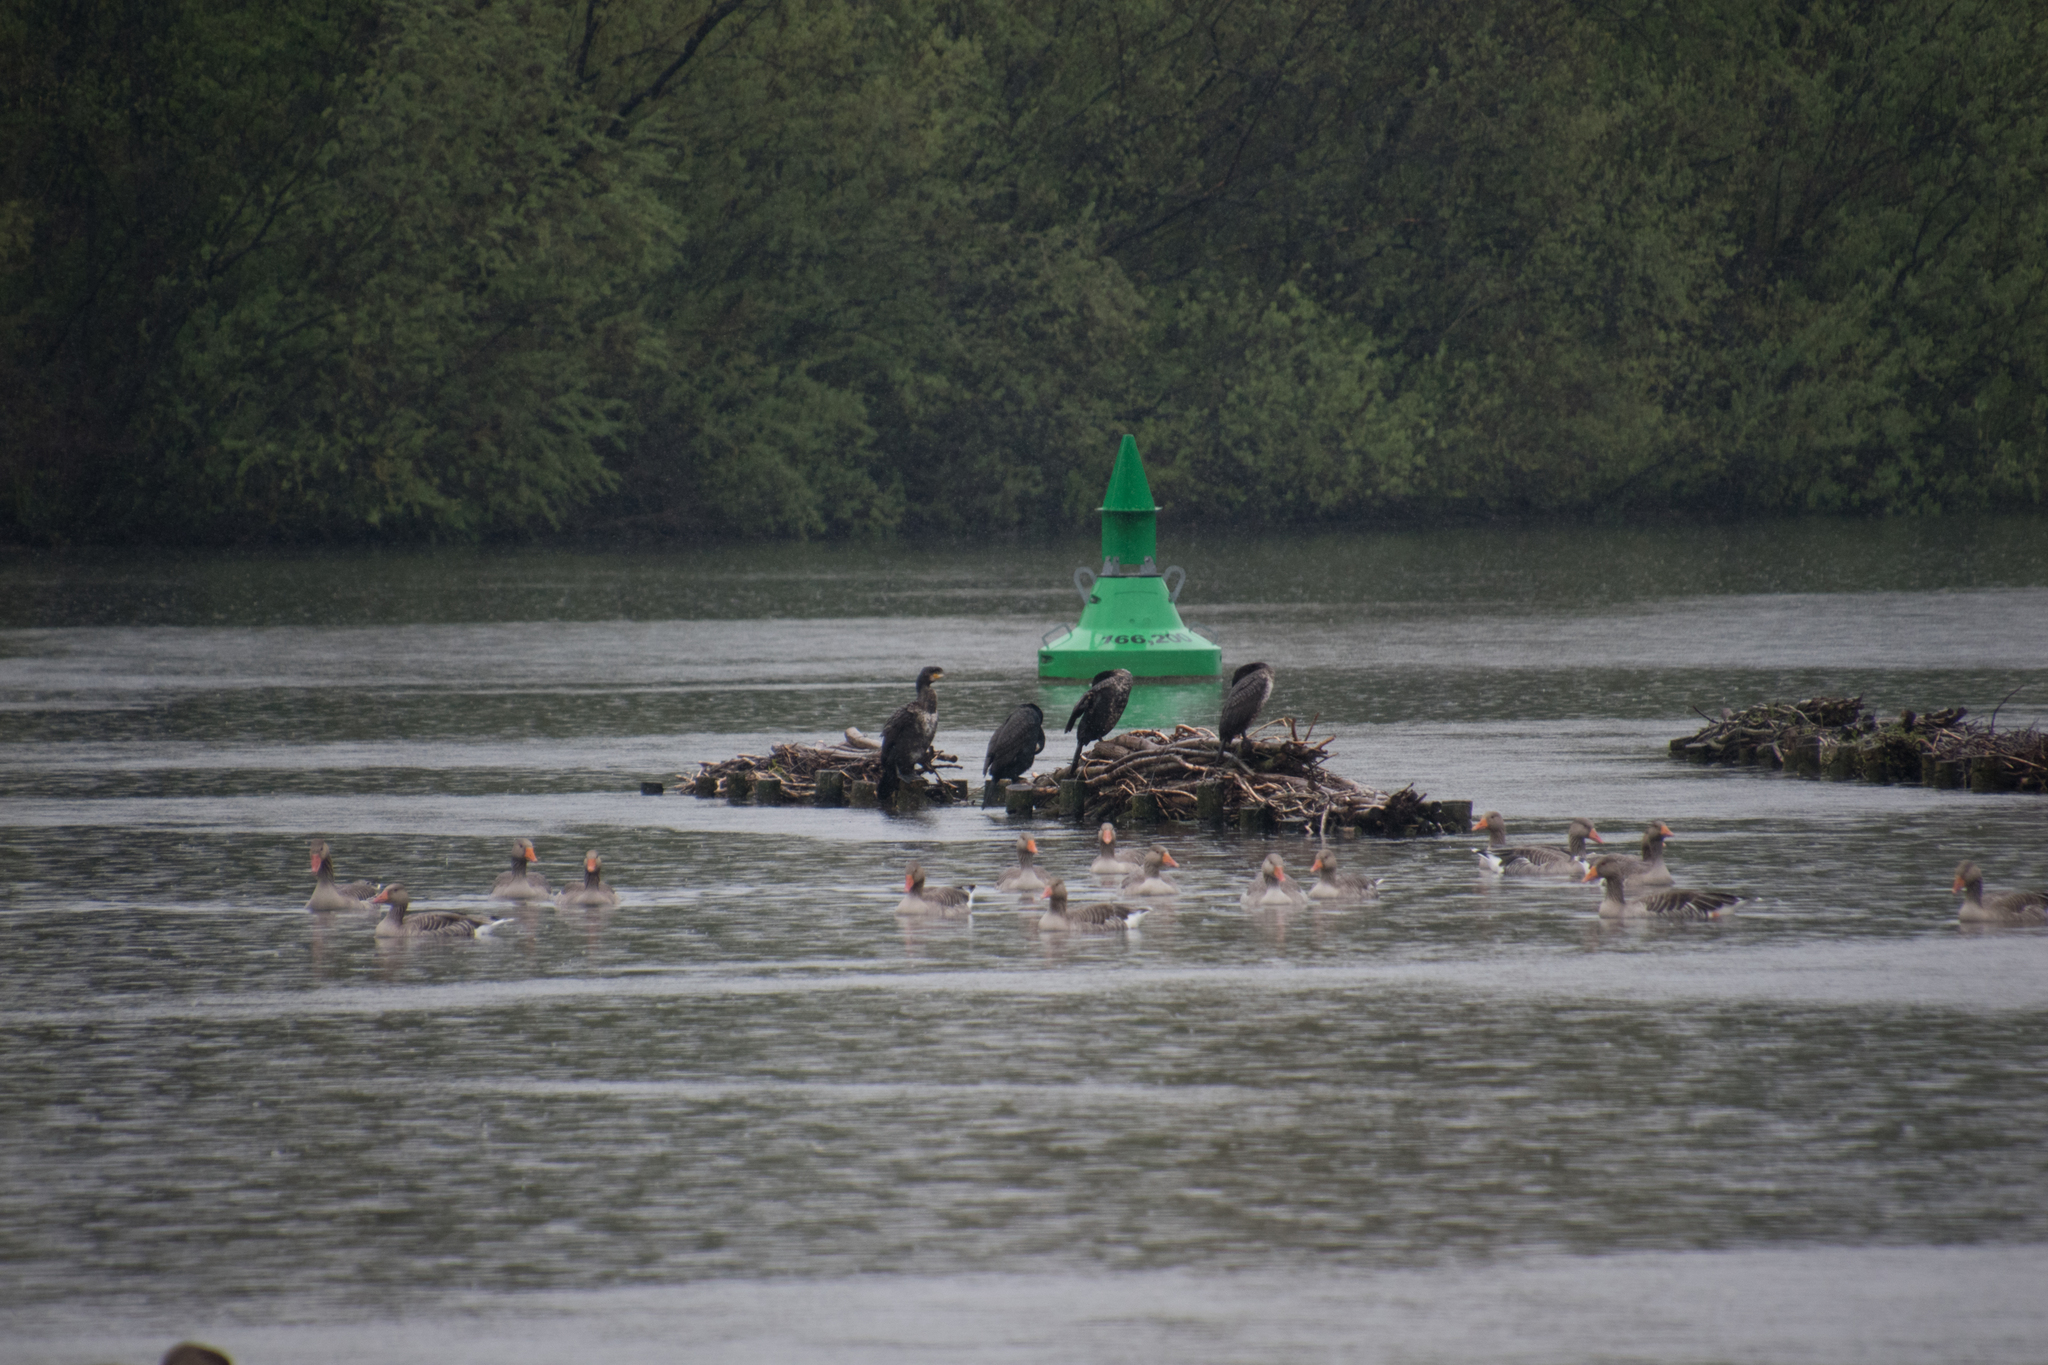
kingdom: Animalia
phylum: Chordata
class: Aves
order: Suliformes
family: Phalacrocoracidae
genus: Phalacrocorax
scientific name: Phalacrocorax carbo
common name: Great cormorant
